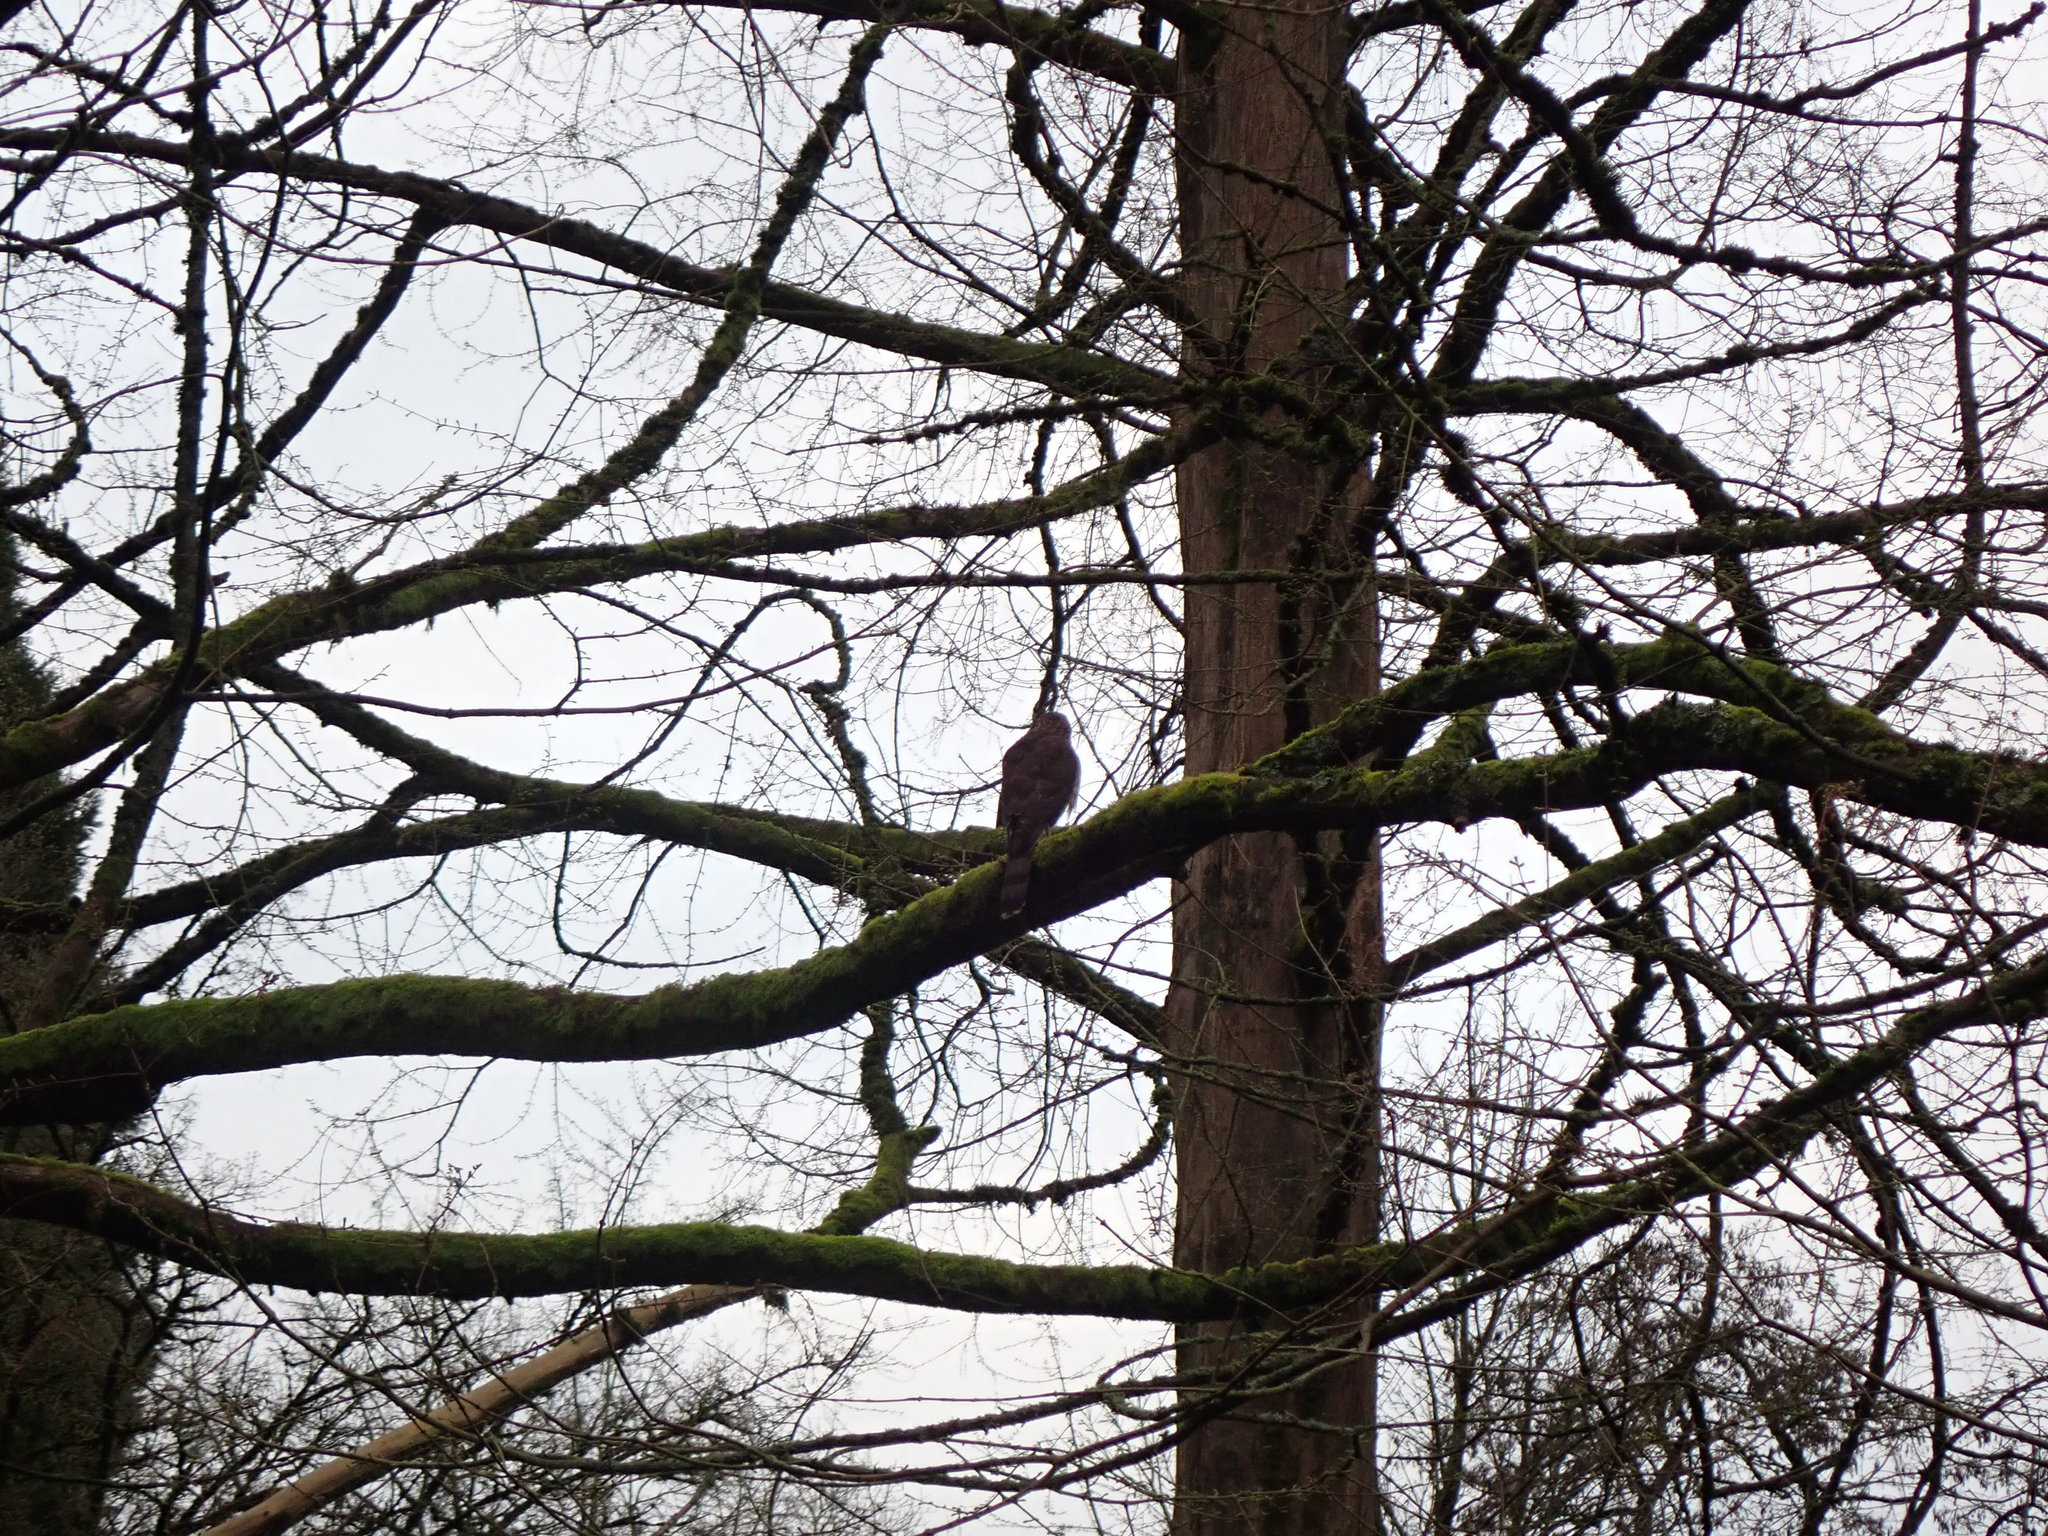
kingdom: Animalia
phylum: Chordata
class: Aves
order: Accipitriformes
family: Accipitridae
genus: Accipiter
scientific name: Accipiter cooperii
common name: Cooper's hawk
